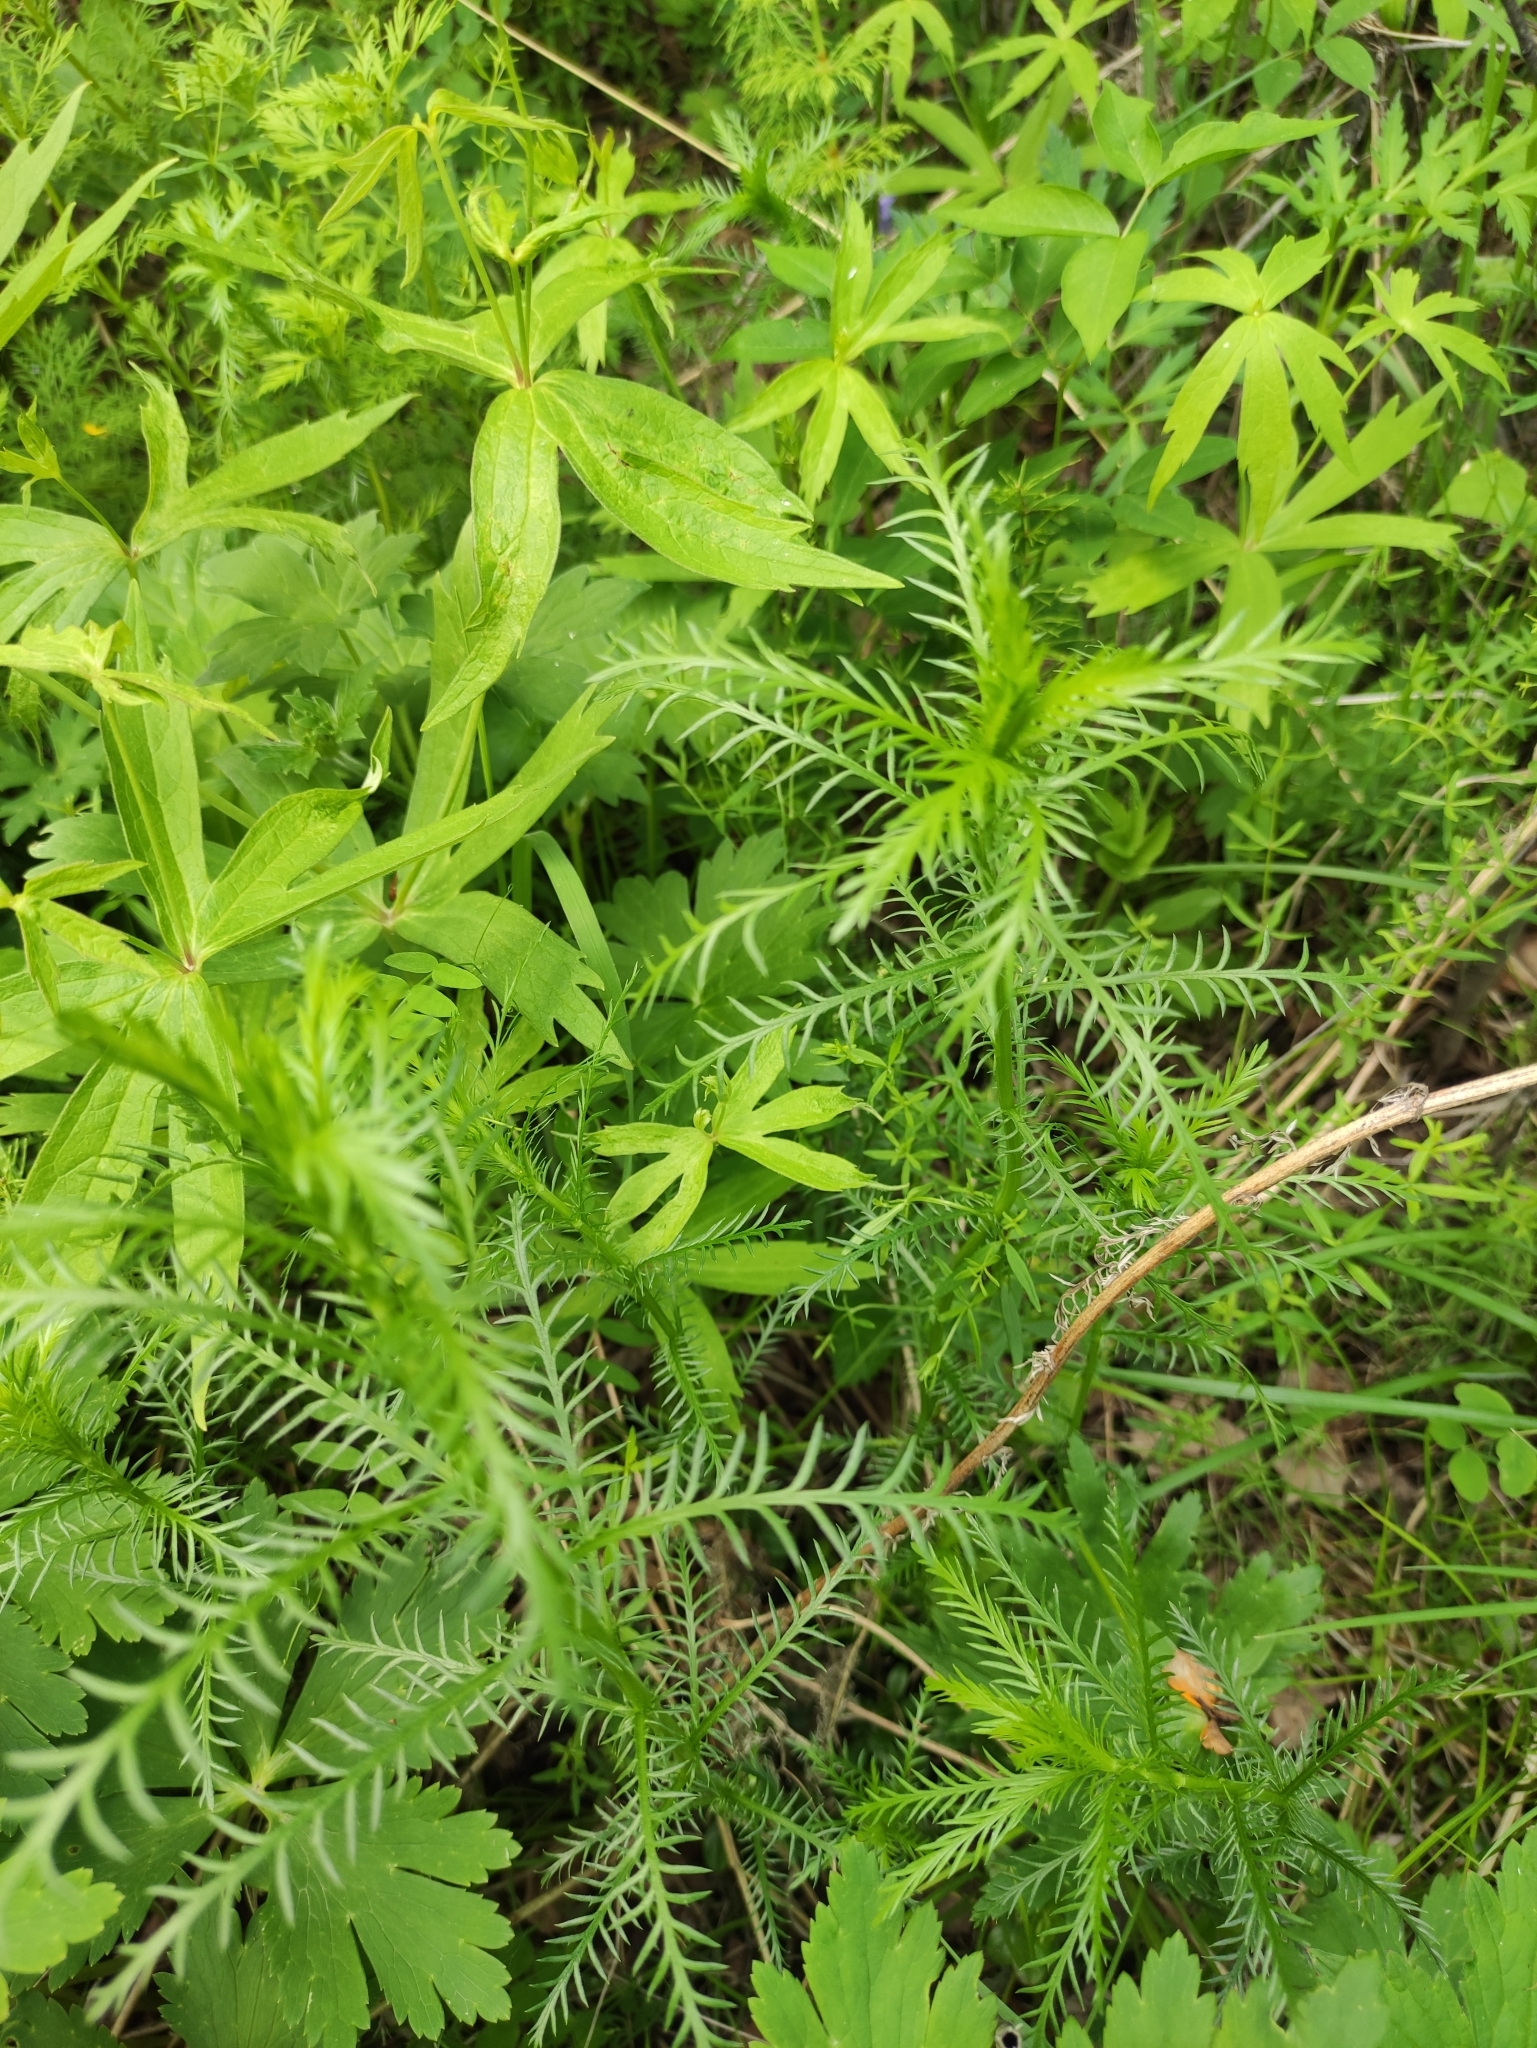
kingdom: Plantae
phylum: Tracheophyta
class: Magnoliopsida
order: Asterales
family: Asteraceae
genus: Achillea
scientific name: Achillea impatiens
